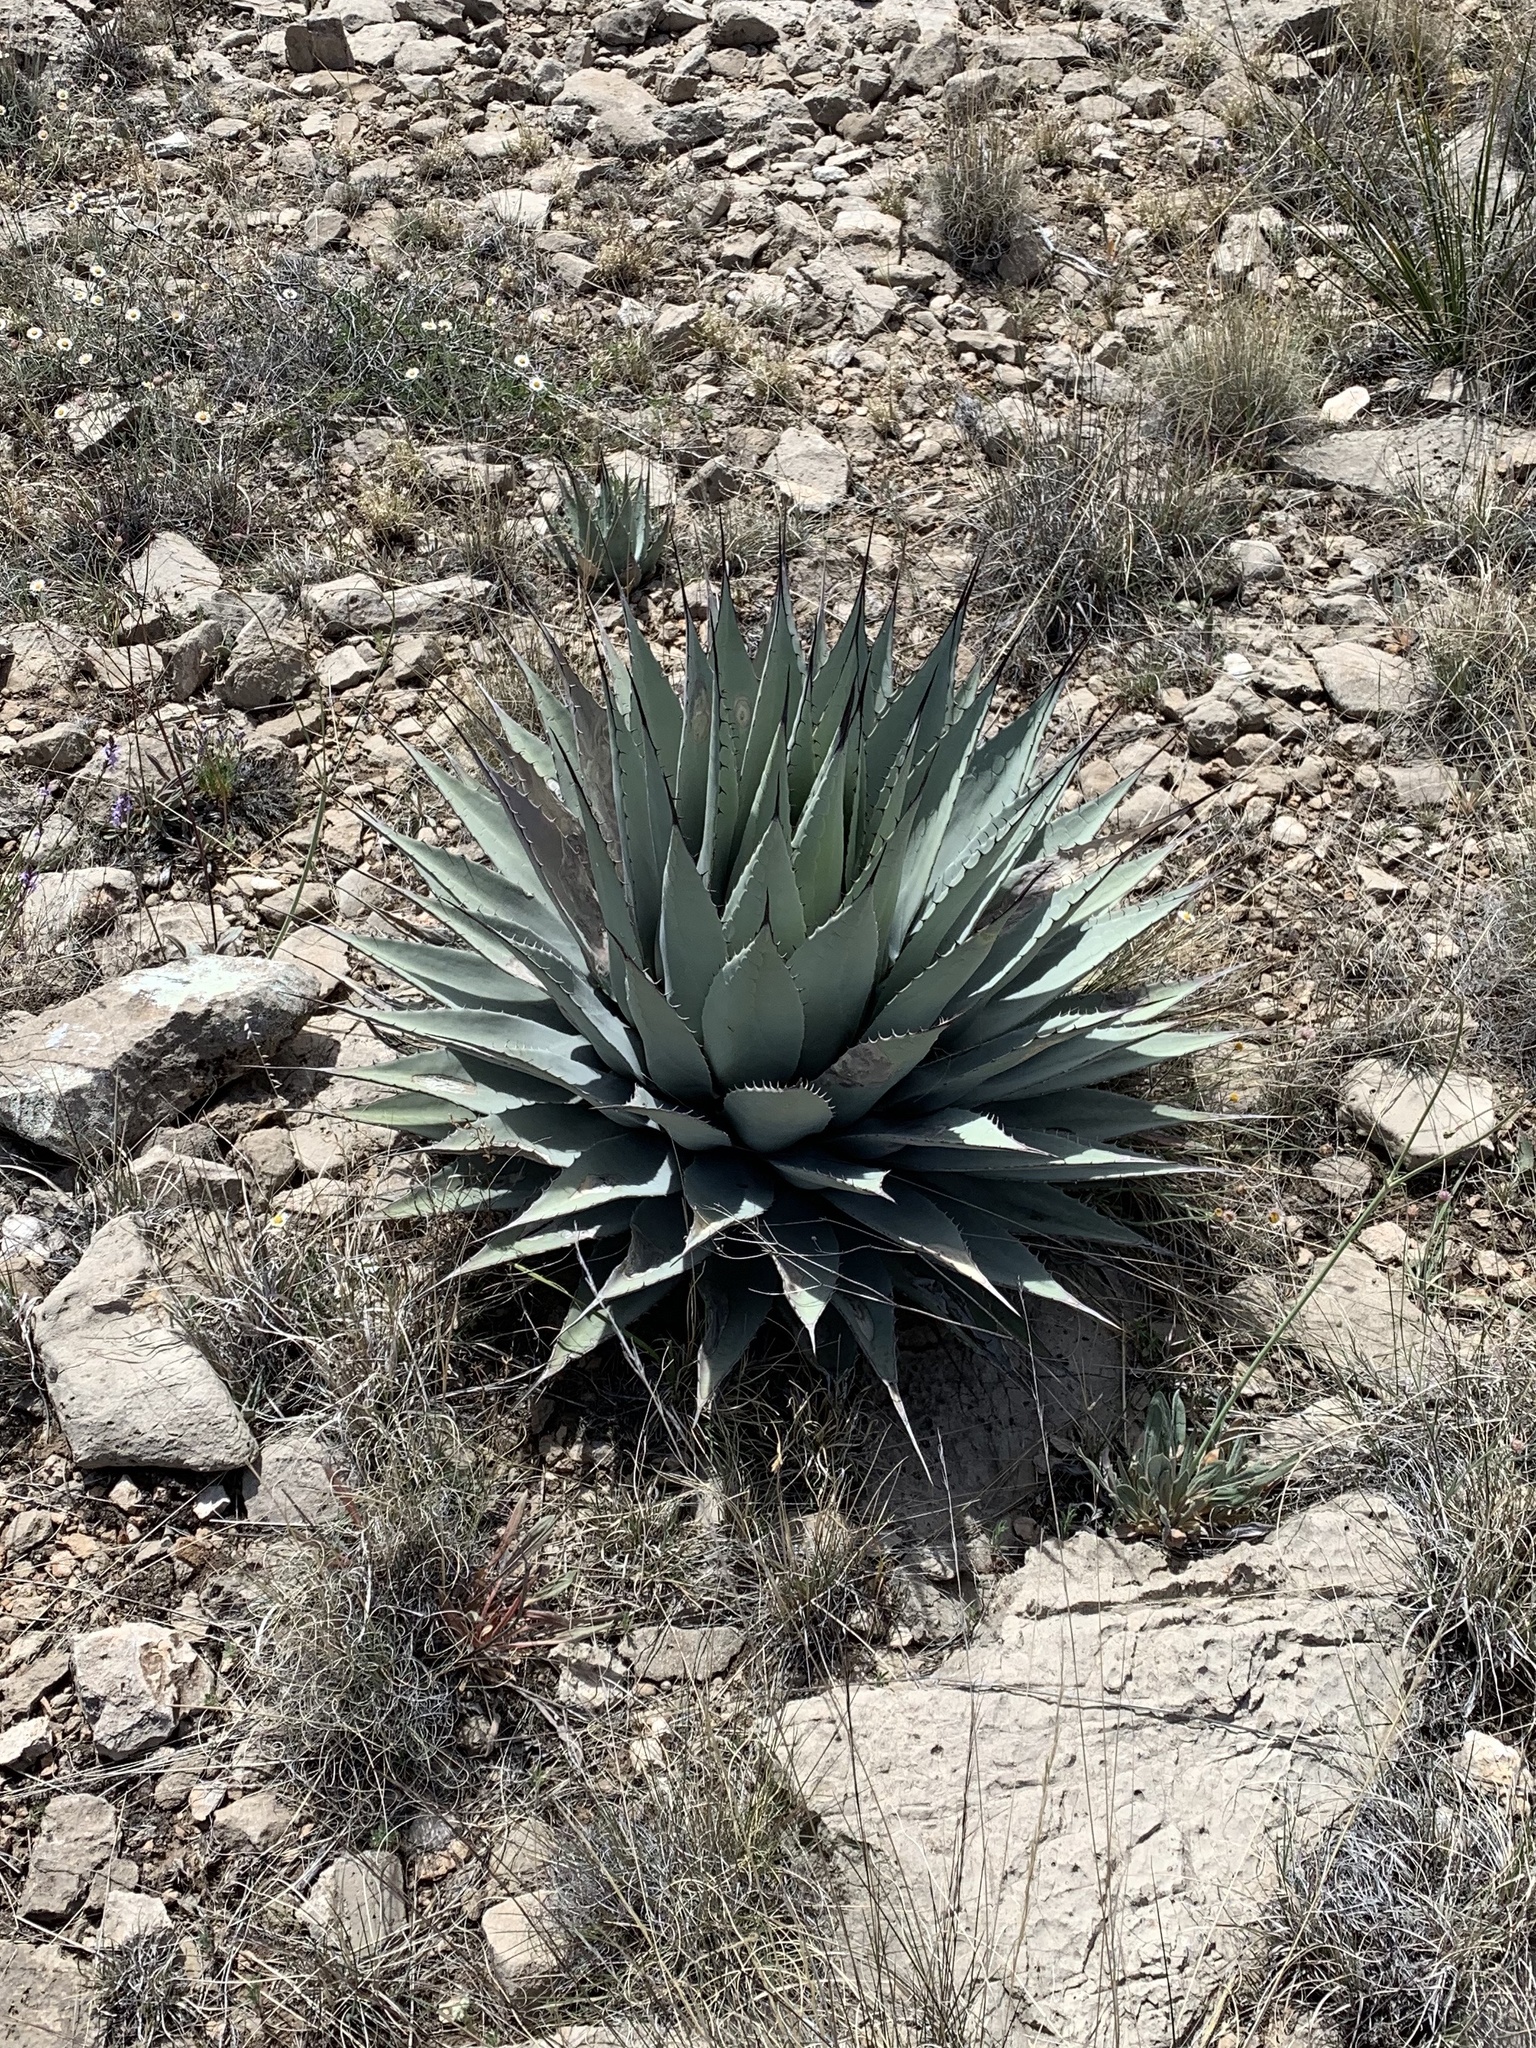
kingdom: Plantae
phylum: Tracheophyta
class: Liliopsida
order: Asparagales
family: Asparagaceae
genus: Agave
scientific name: Agave parryi
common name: Parry's agave
